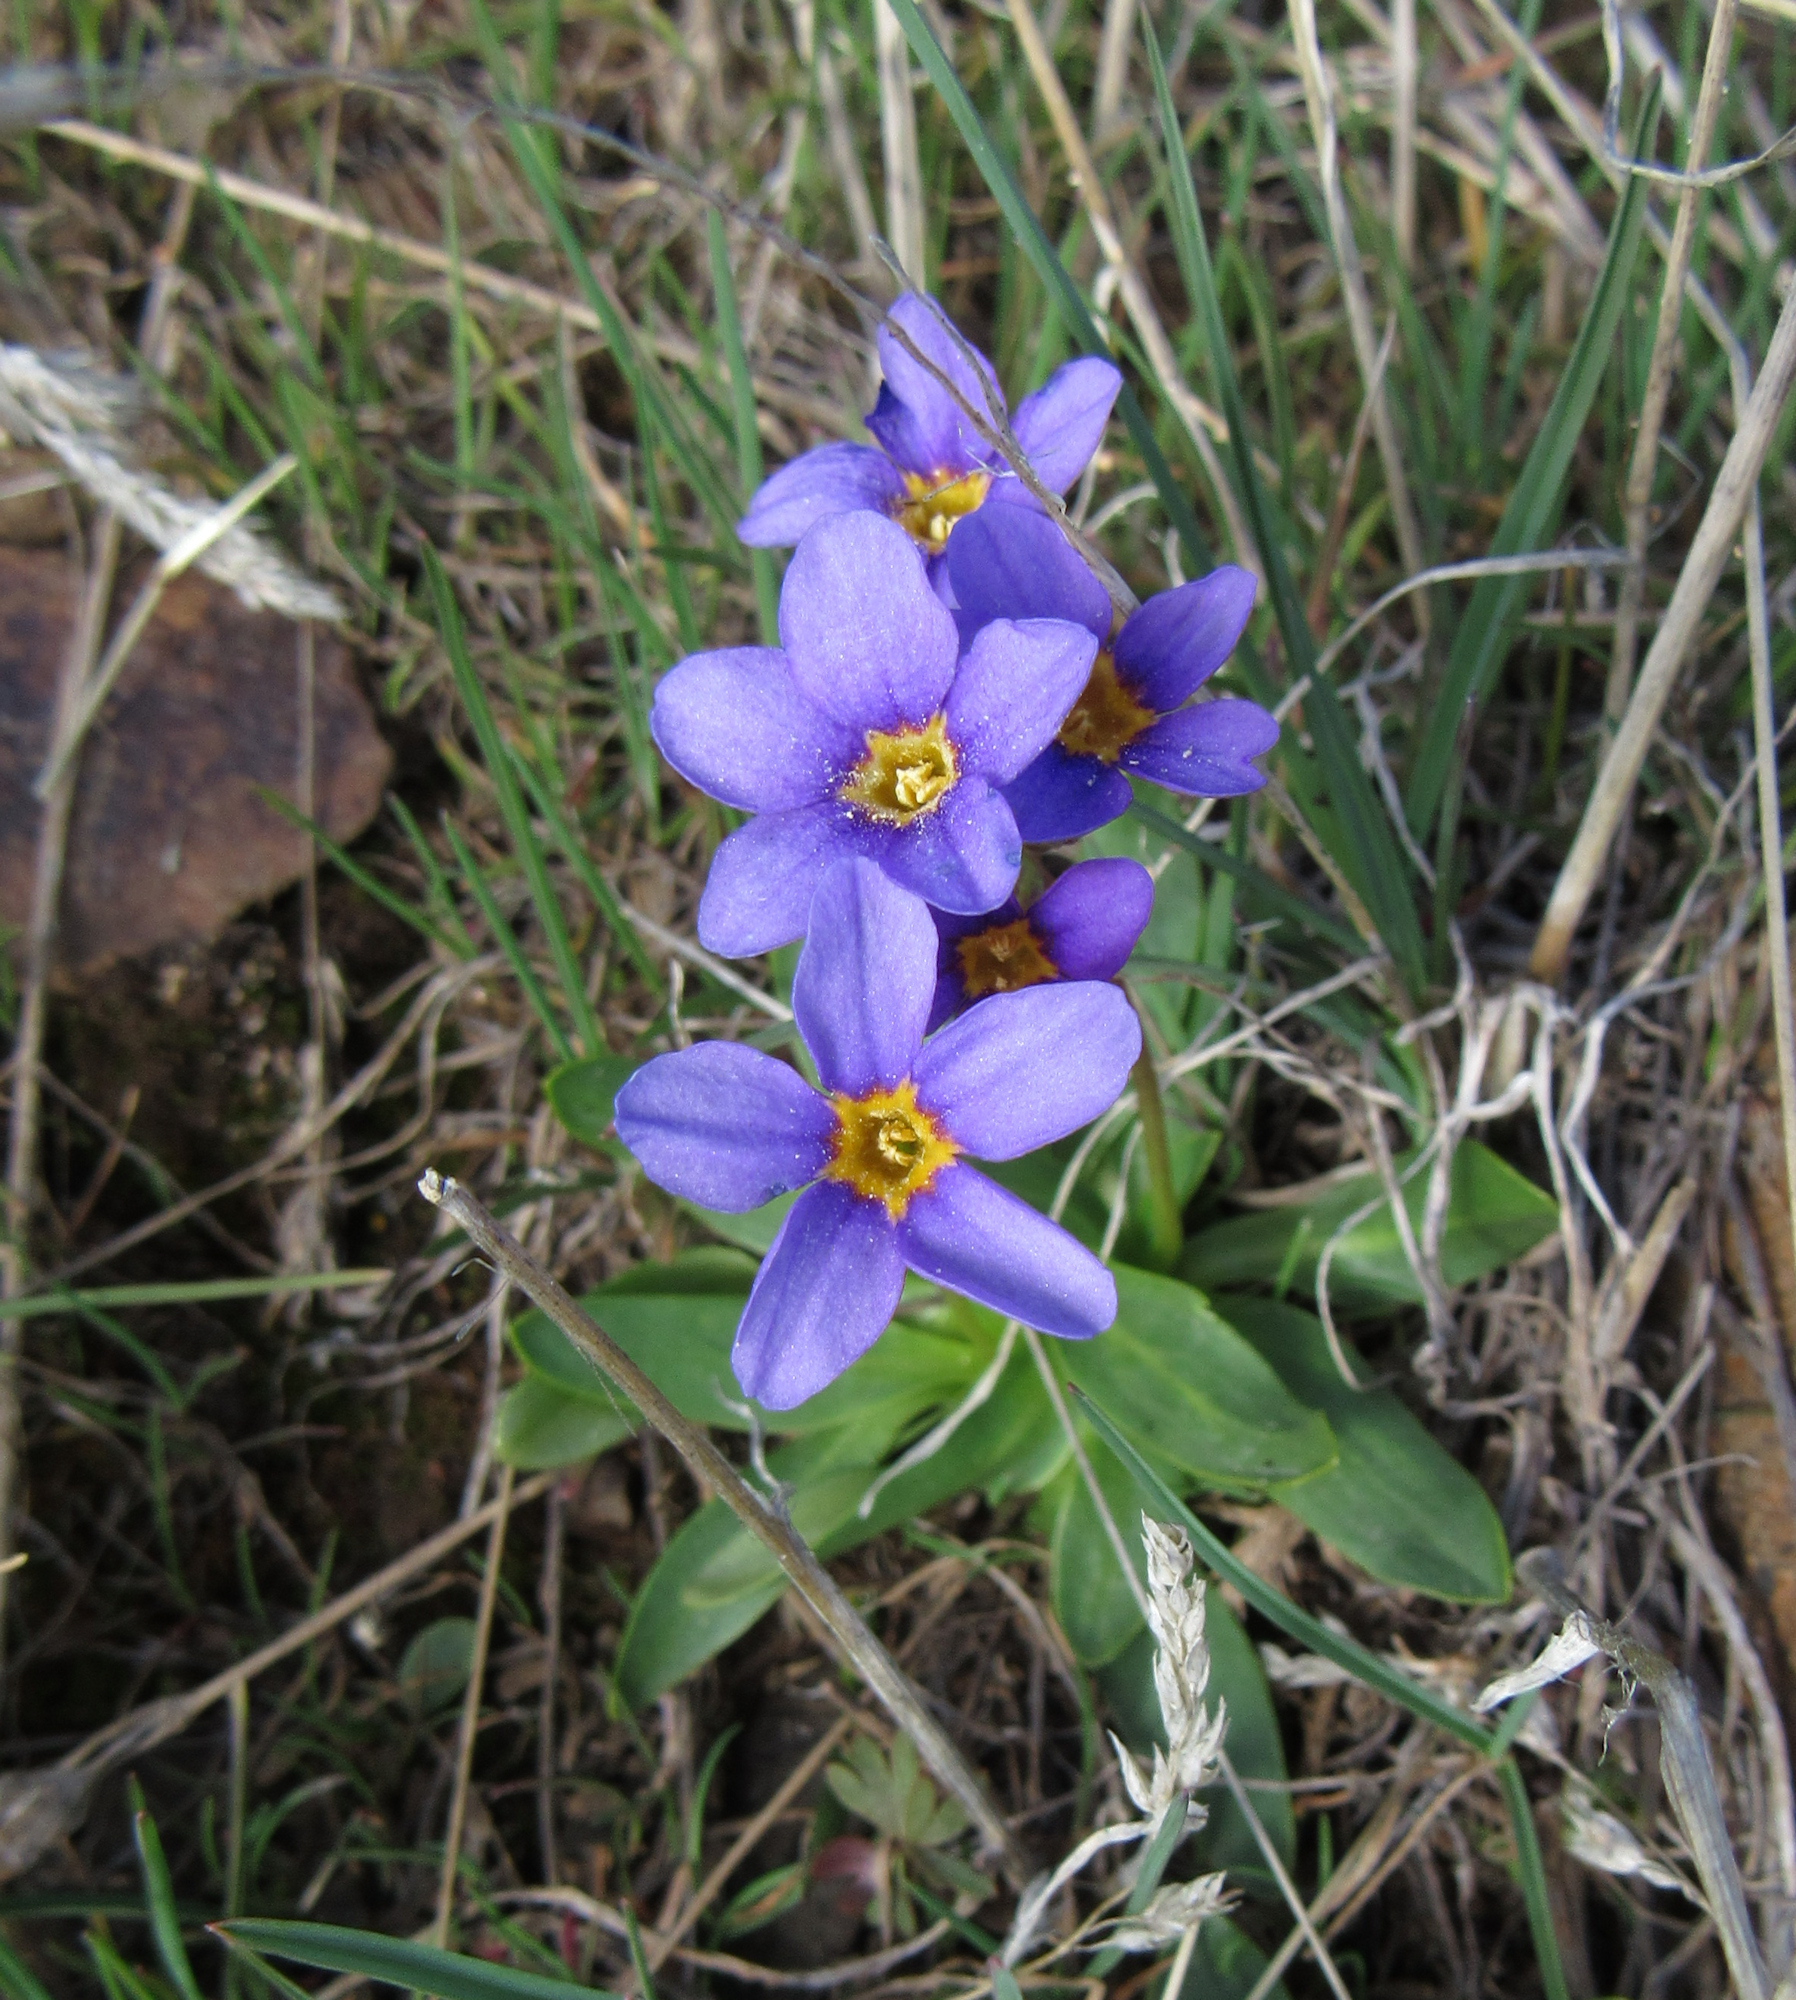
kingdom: Plantae
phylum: Tracheophyta
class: Magnoliopsida
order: Ericales
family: Primulaceae
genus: Primula
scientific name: Primula cusickiana
